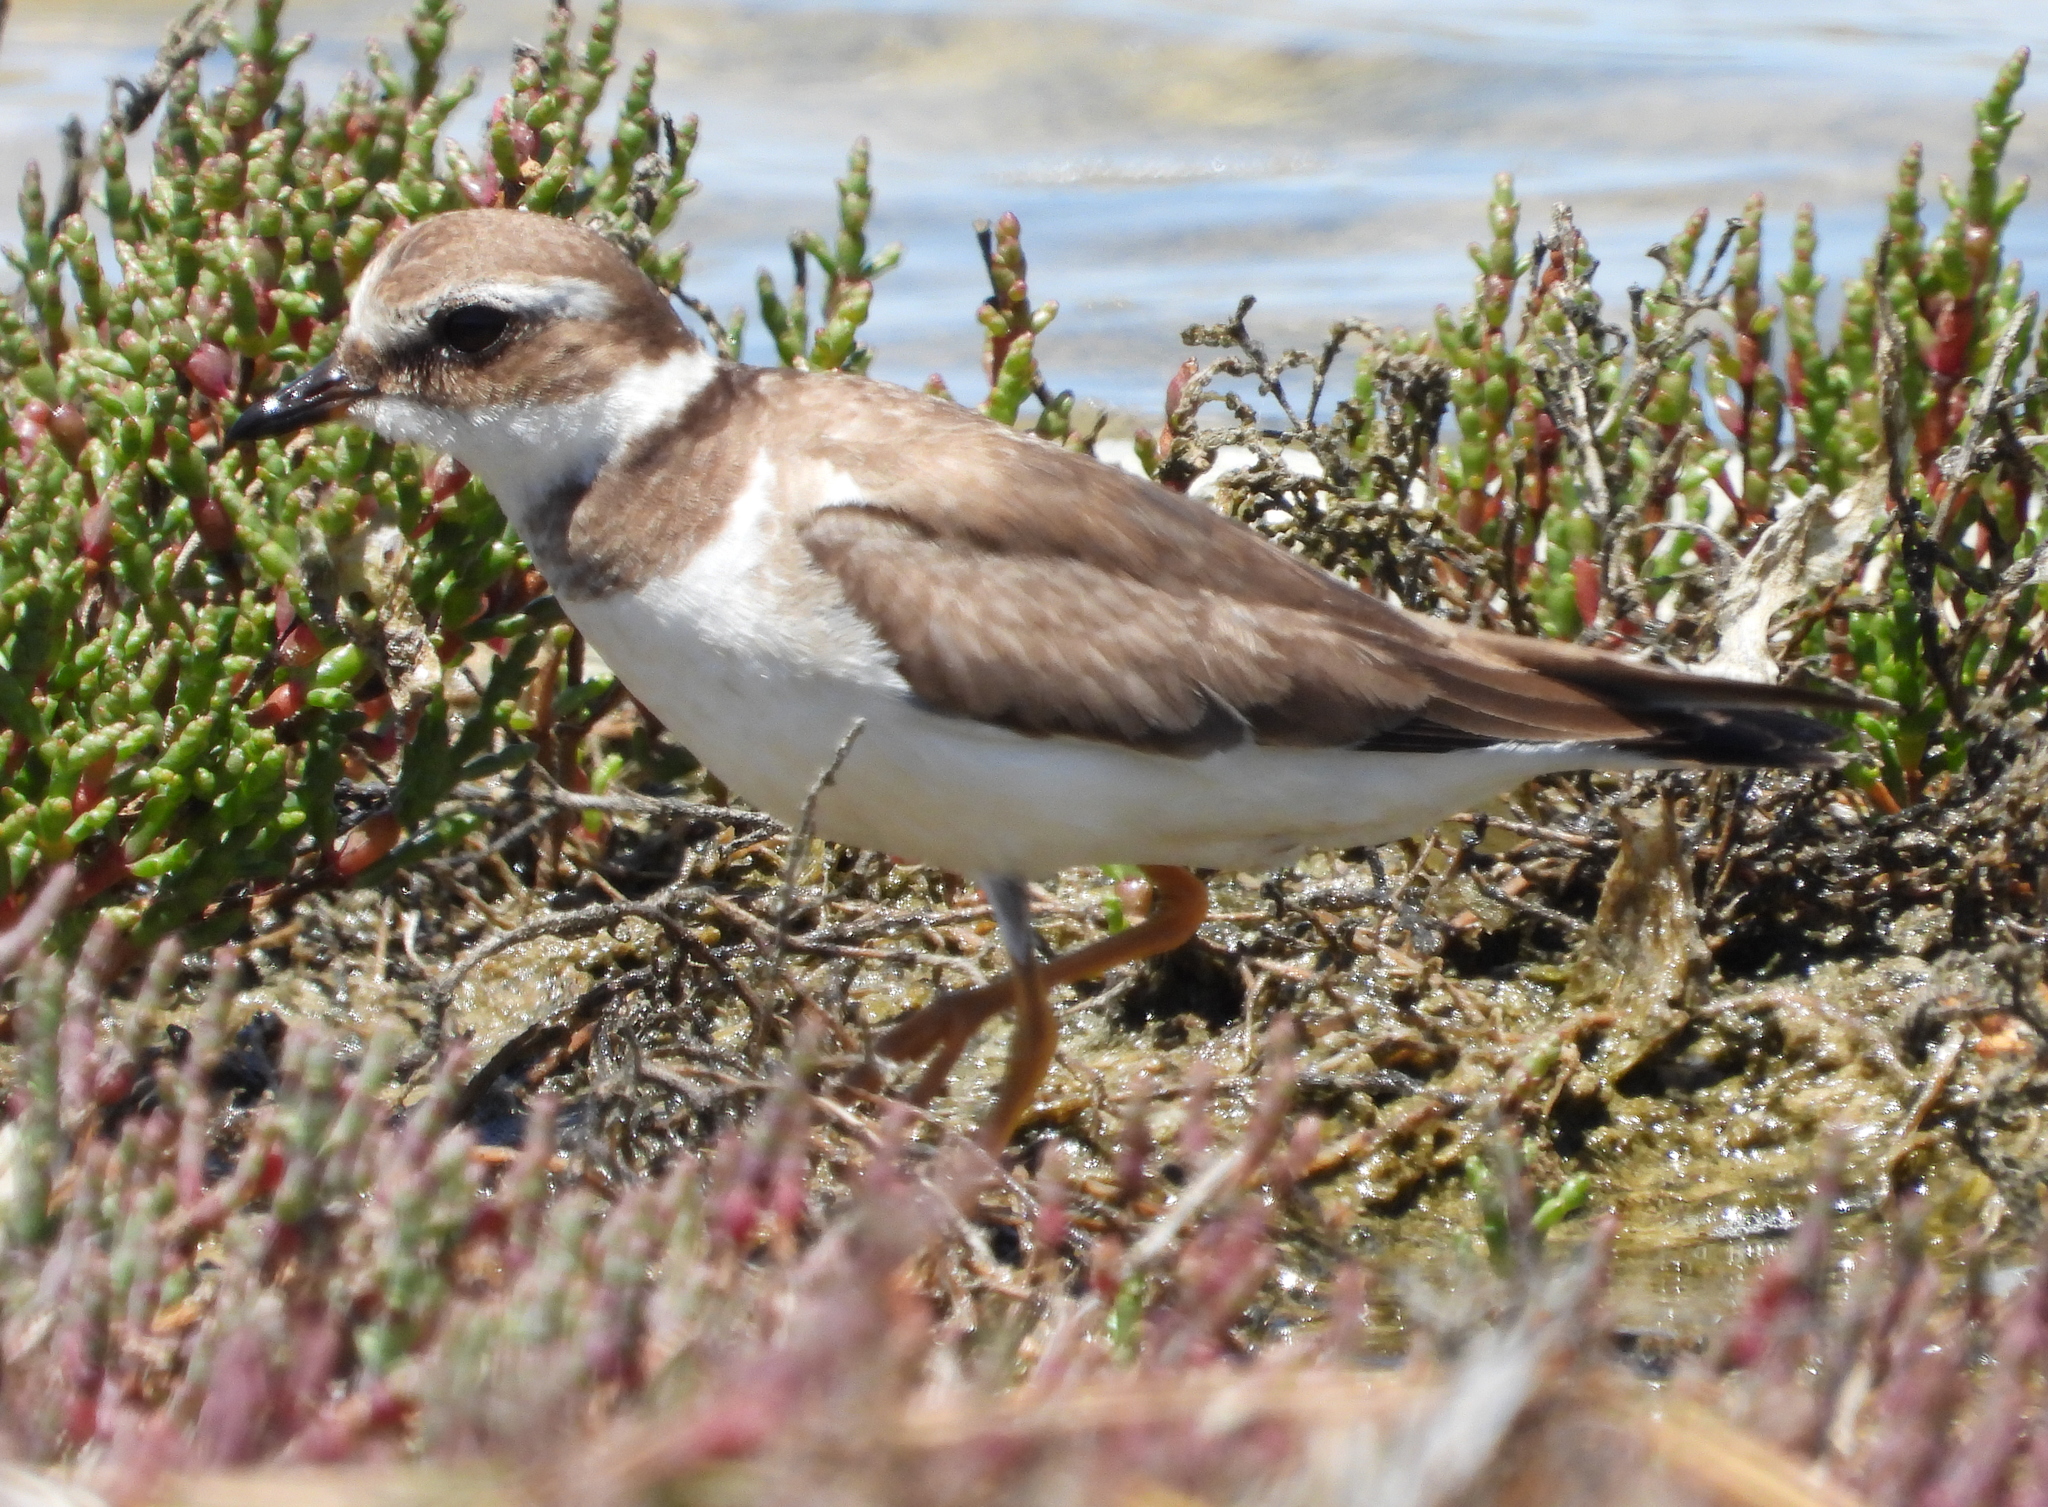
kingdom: Animalia
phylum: Chordata
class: Aves
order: Charadriiformes
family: Charadriidae
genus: Charadrius
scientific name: Charadrius hiaticula
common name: Common ringed plover
